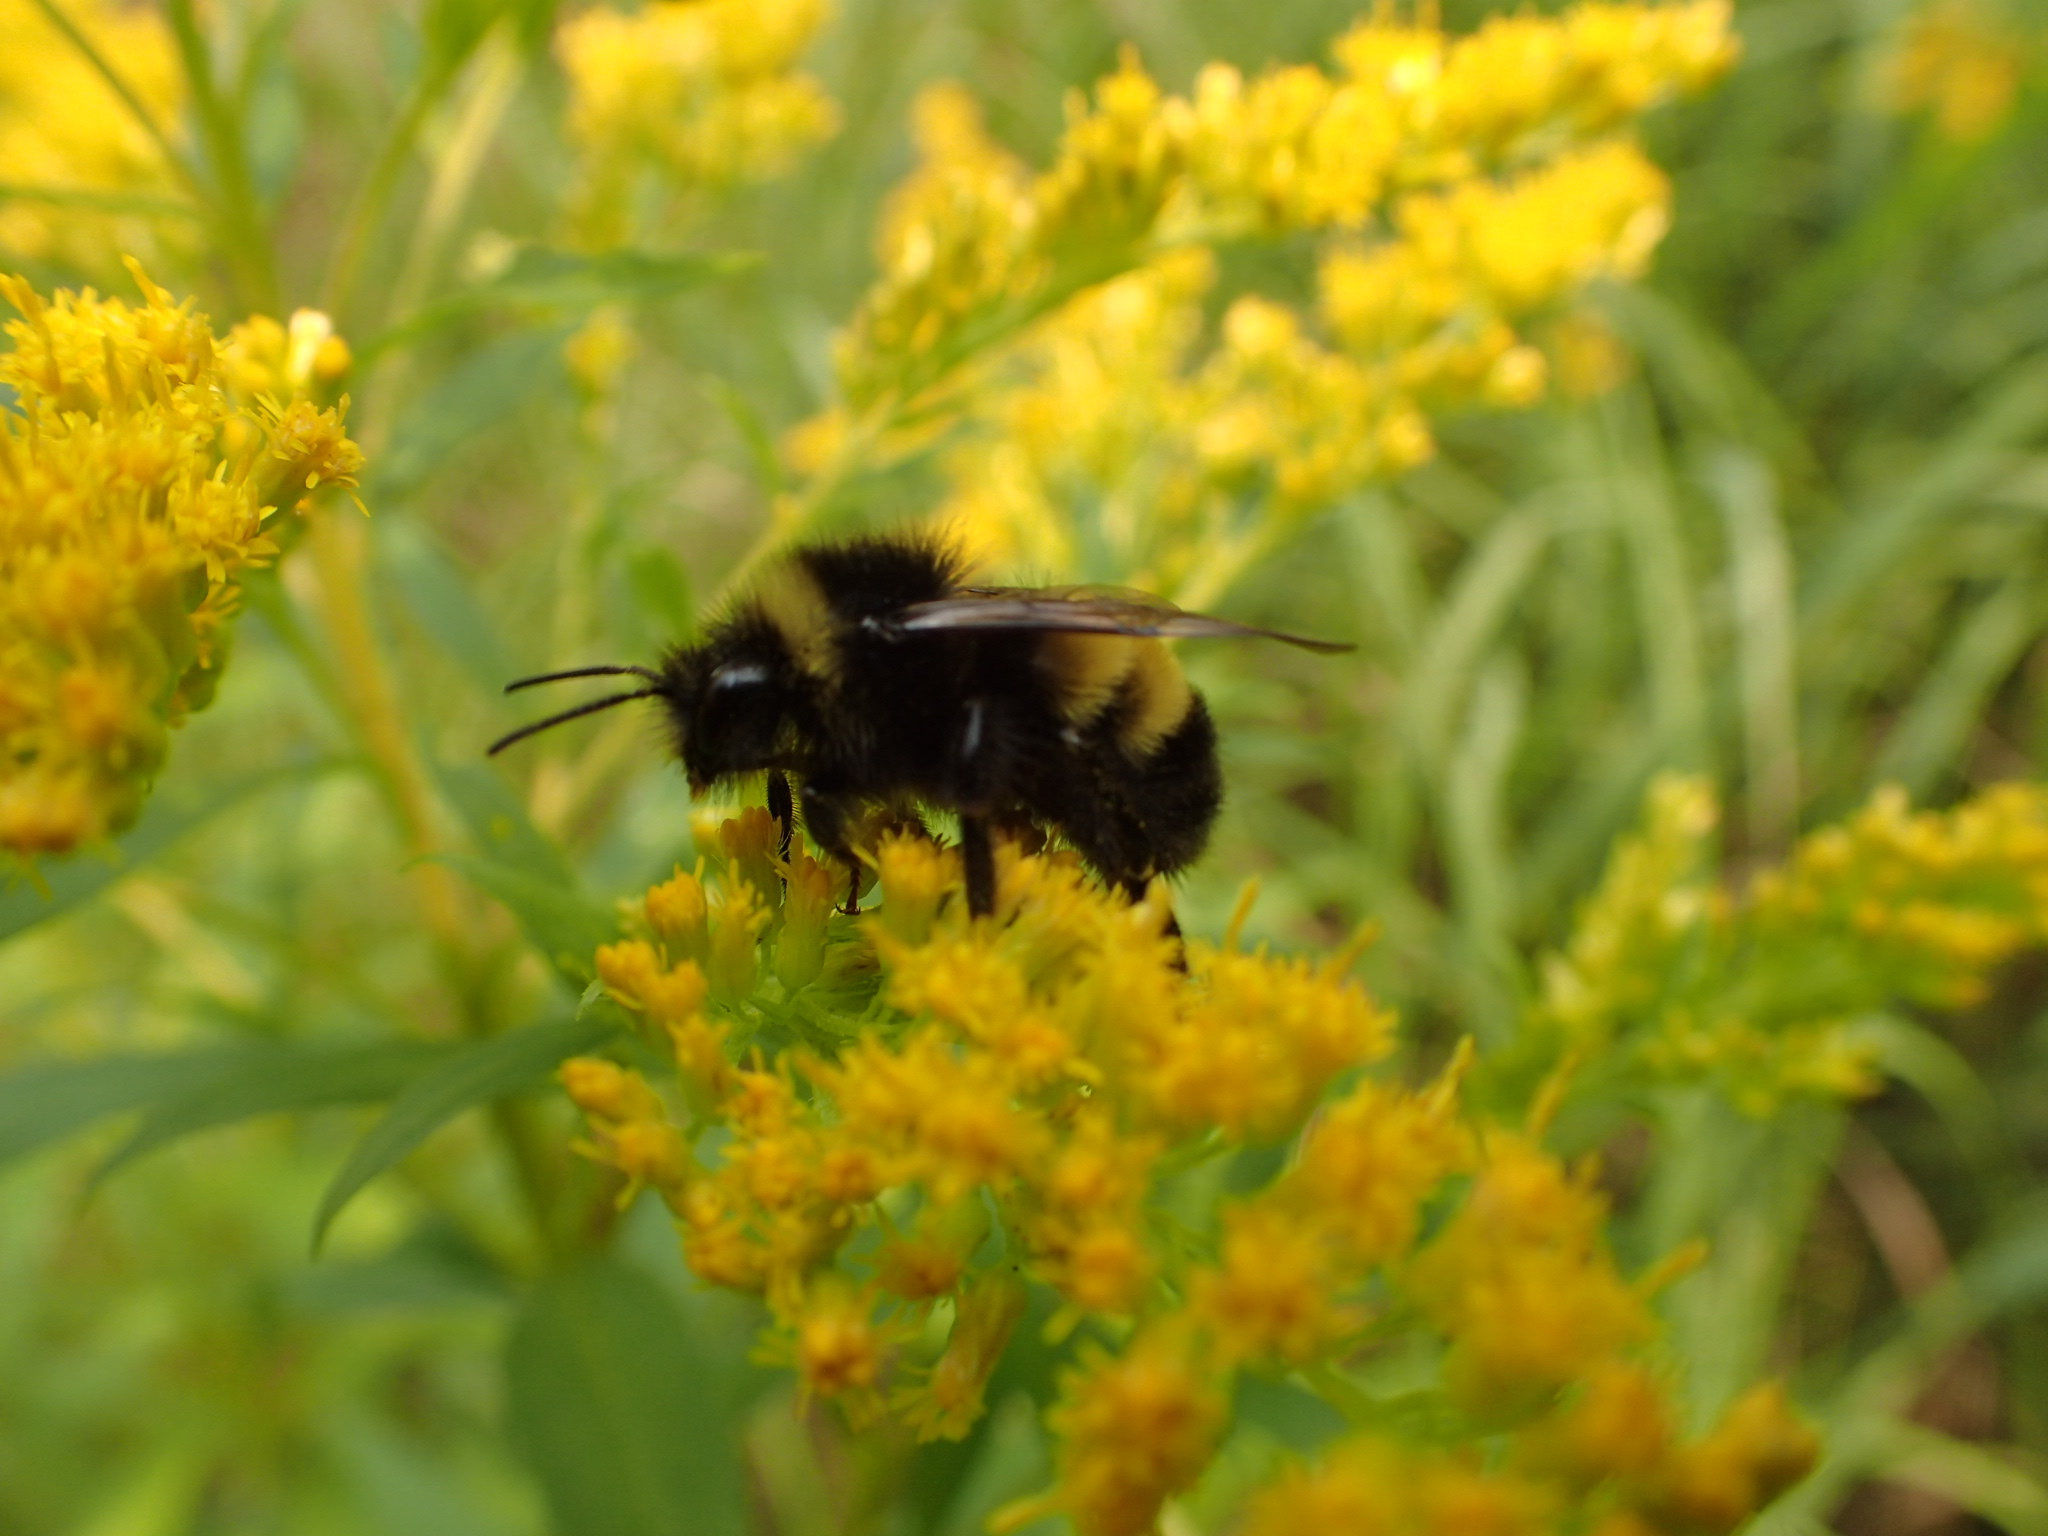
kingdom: Animalia
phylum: Arthropoda
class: Insecta
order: Hymenoptera
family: Apidae
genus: Bombus
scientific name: Bombus terricola
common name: Yellow-banded bumble bee
